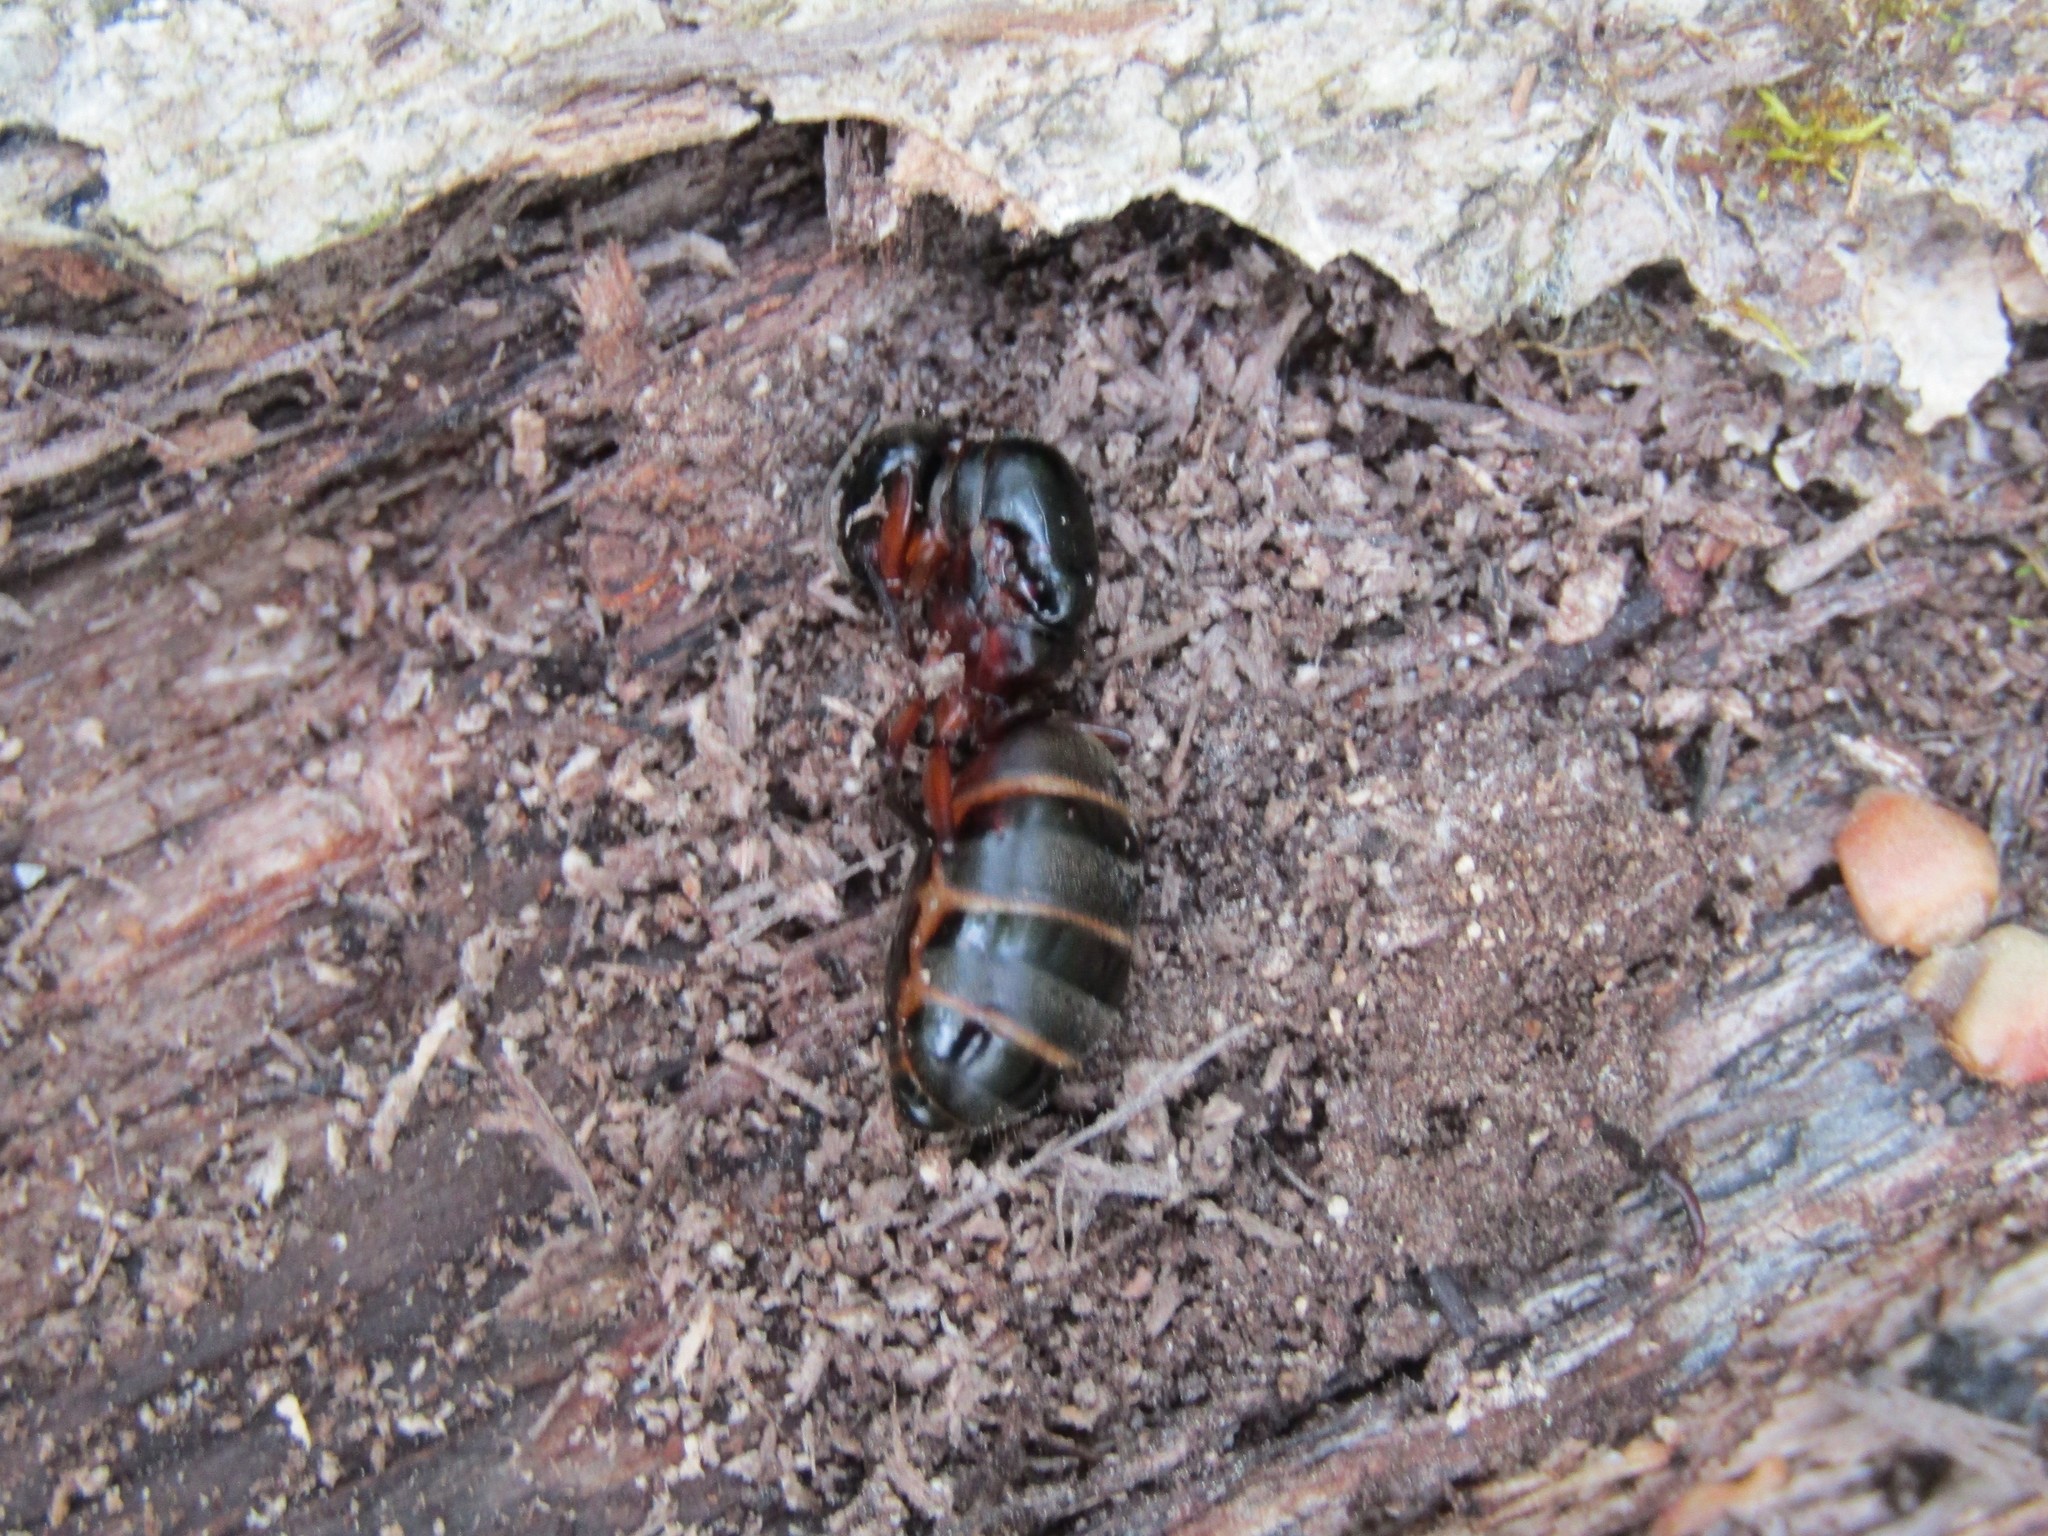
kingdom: Animalia
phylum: Arthropoda
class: Insecta
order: Hymenoptera
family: Formicidae
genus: Camponotus
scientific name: Camponotus chromaiodes
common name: Red carpenter ant
